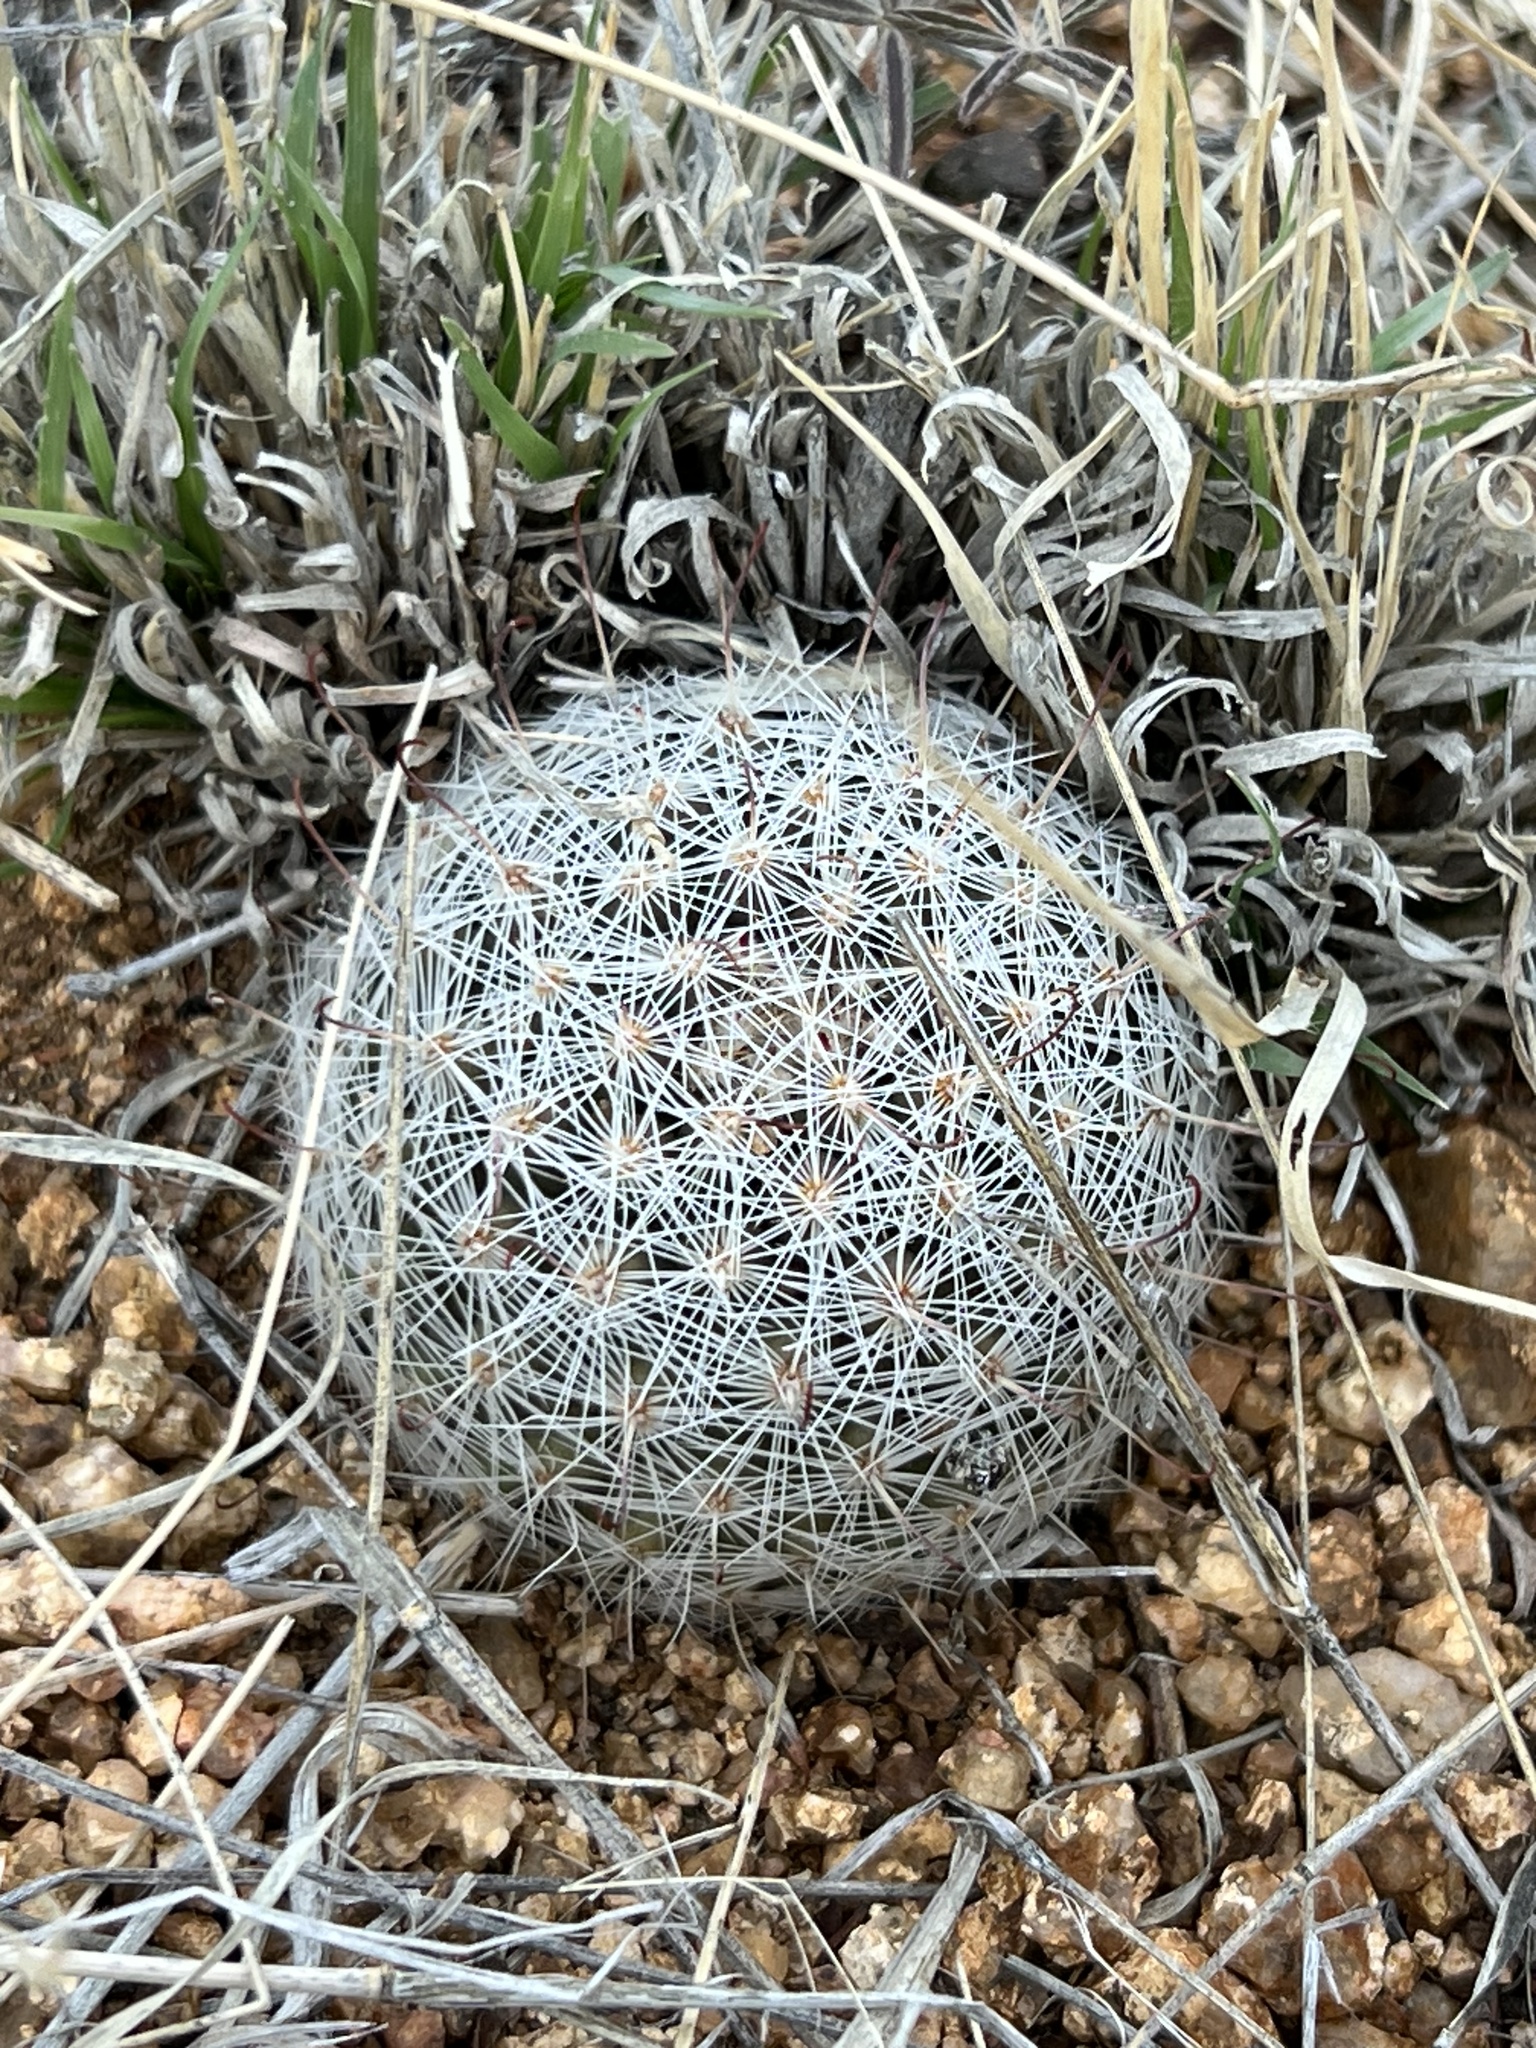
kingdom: Plantae
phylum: Tracheophyta
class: Magnoliopsida
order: Caryophyllales
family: Cactaceae
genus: Pelecyphora
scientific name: Pelecyphora vivipara
